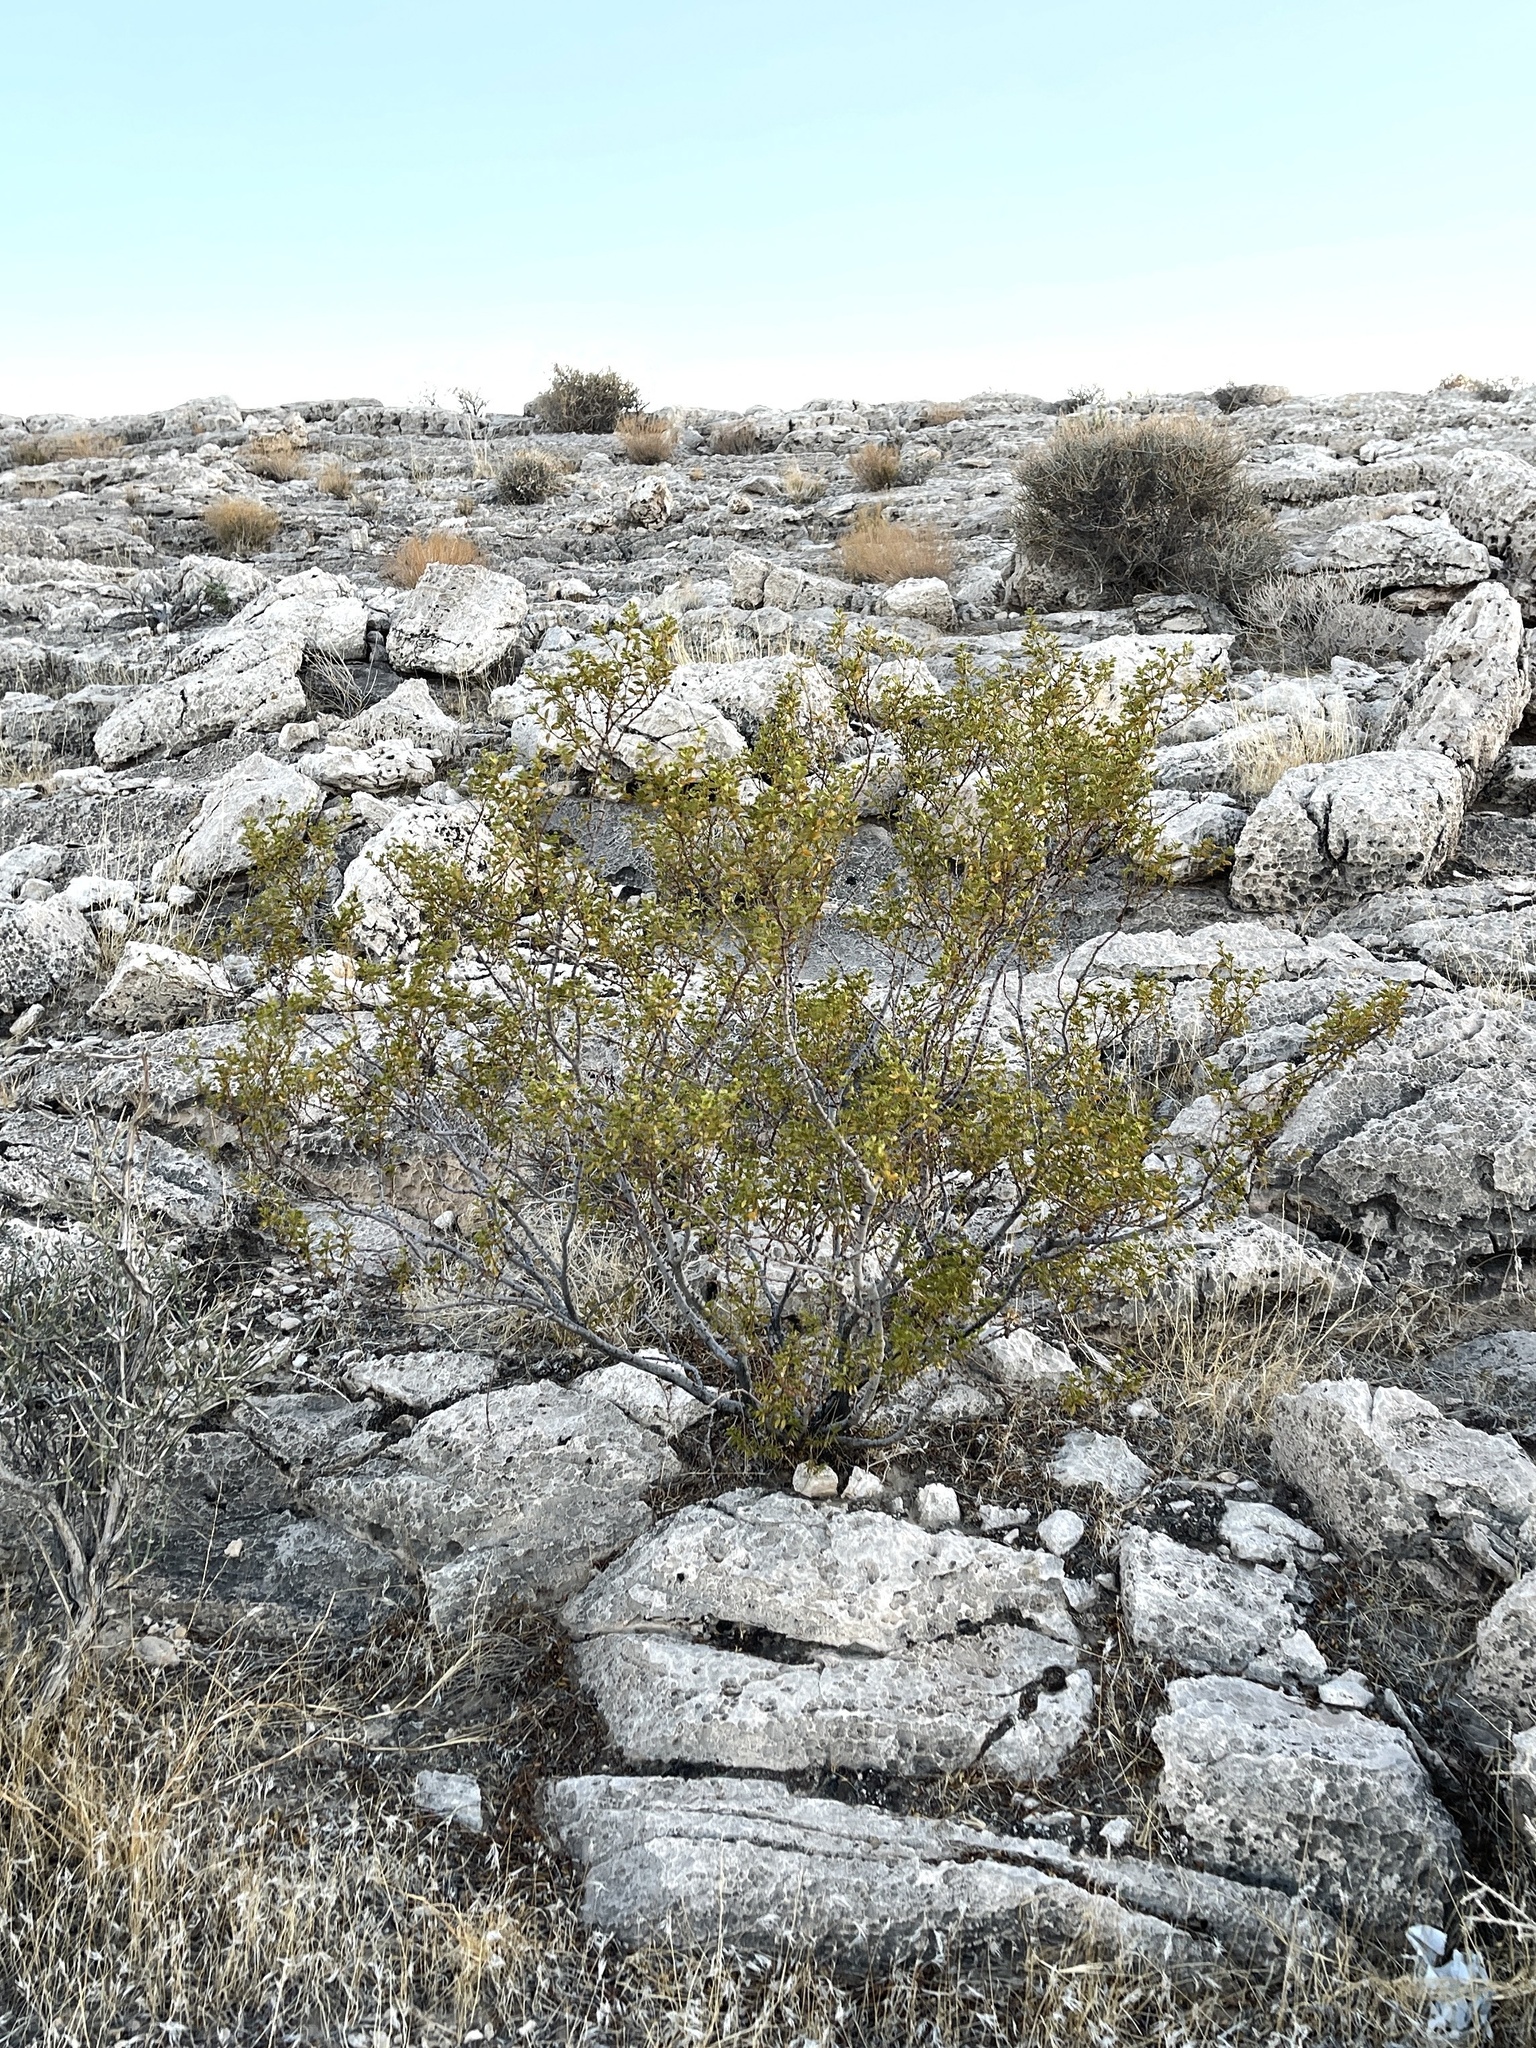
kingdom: Plantae
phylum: Tracheophyta
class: Magnoliopsida
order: Zygophyllales
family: Zygophyllaceae
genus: Larrea
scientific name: Larrea tridentata
